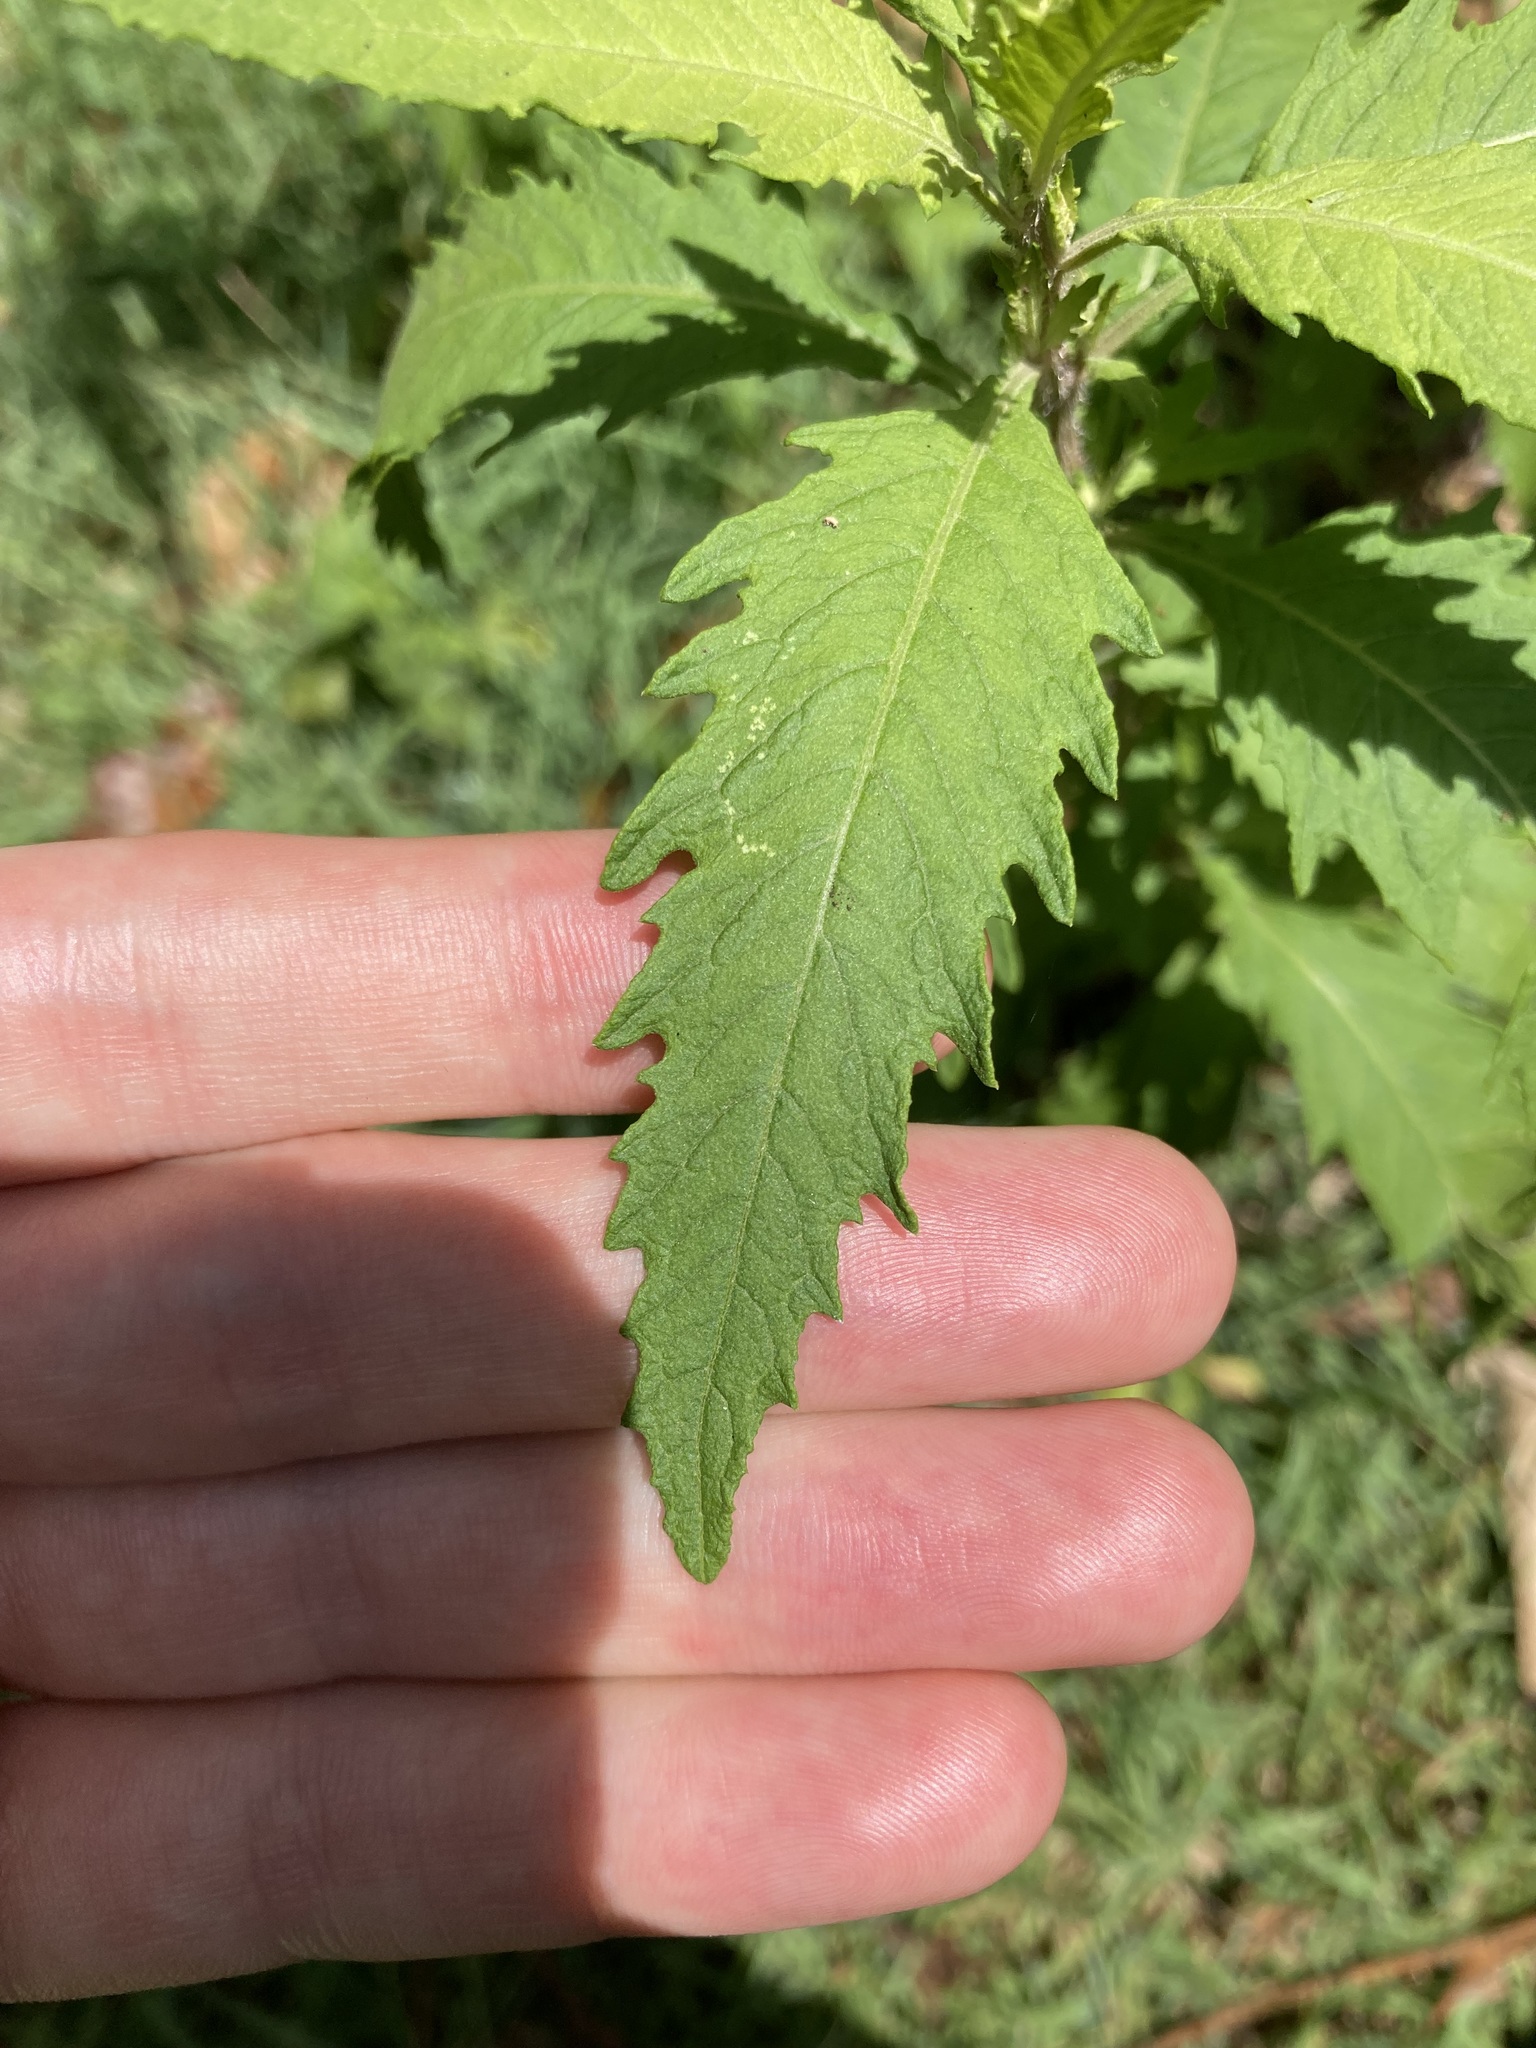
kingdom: Plantae
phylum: Tracheophyta
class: Magnoliopsida
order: Caryophyllales
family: Amaranthaceae
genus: Dysphania
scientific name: Dysphania ambrosioides
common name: Wormseed
